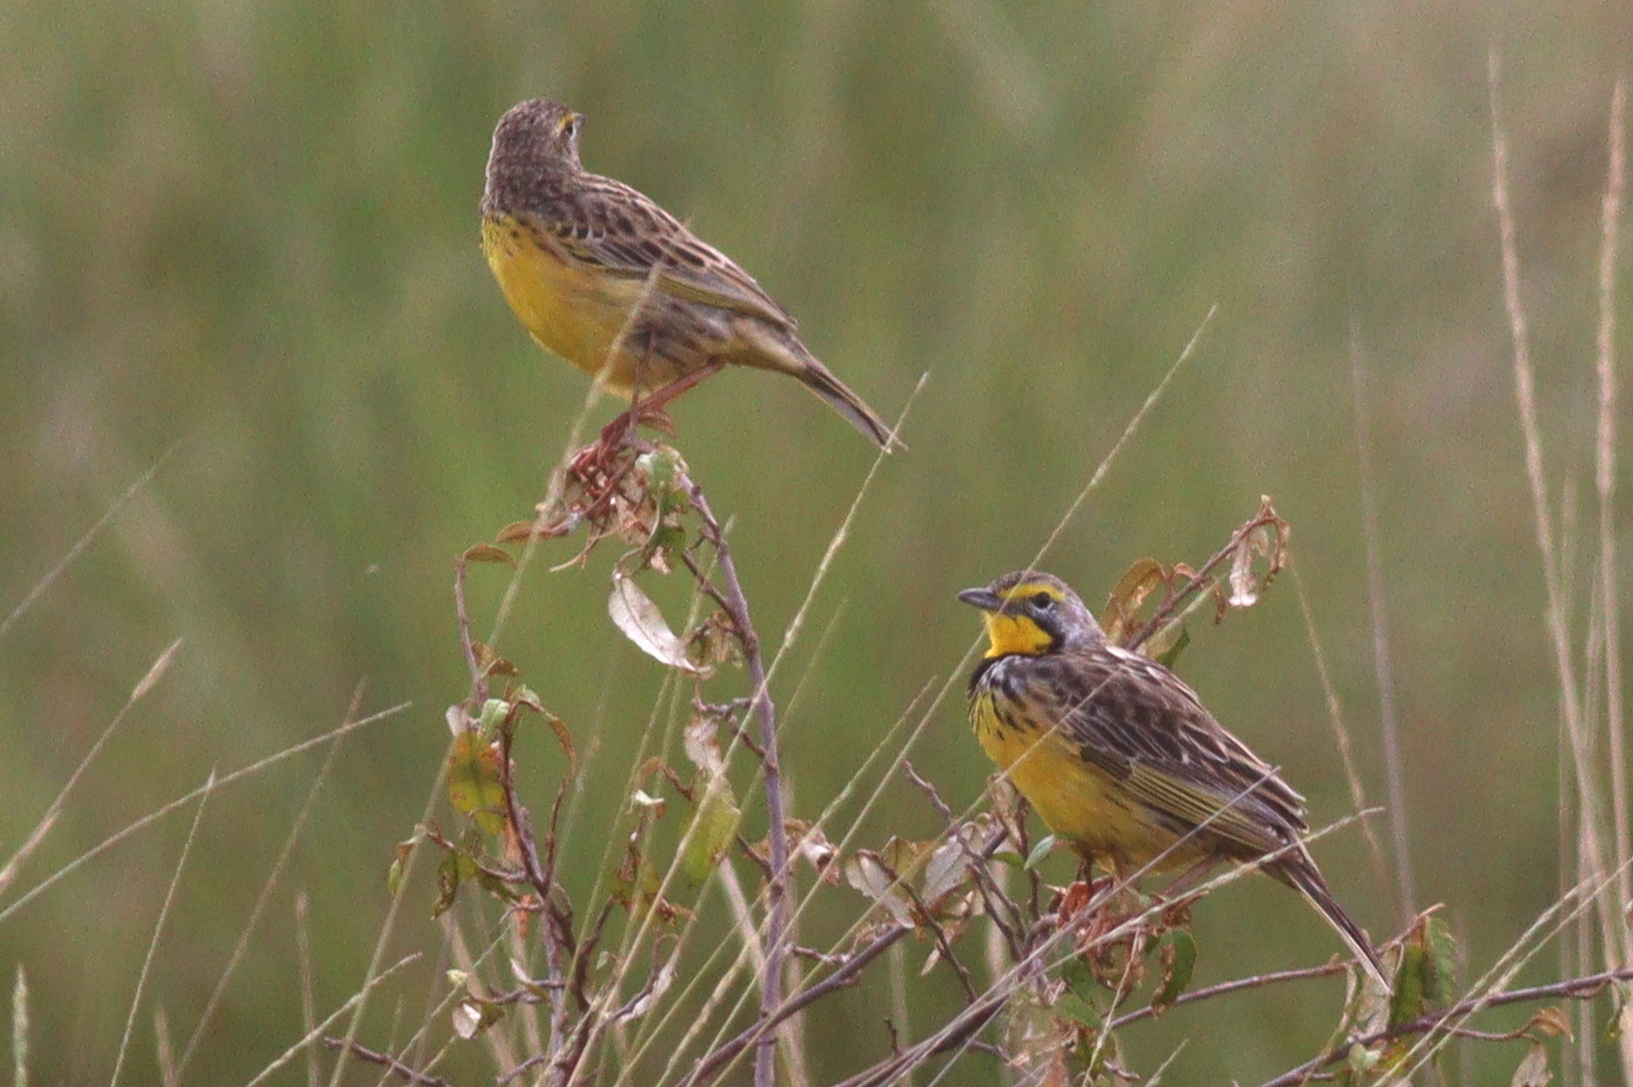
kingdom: Animalia
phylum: Chordata
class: Aves
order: Passeriformes
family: Motacillidae
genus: Macronyx
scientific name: Macronyx croceus
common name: Yellow-throated longclaw
